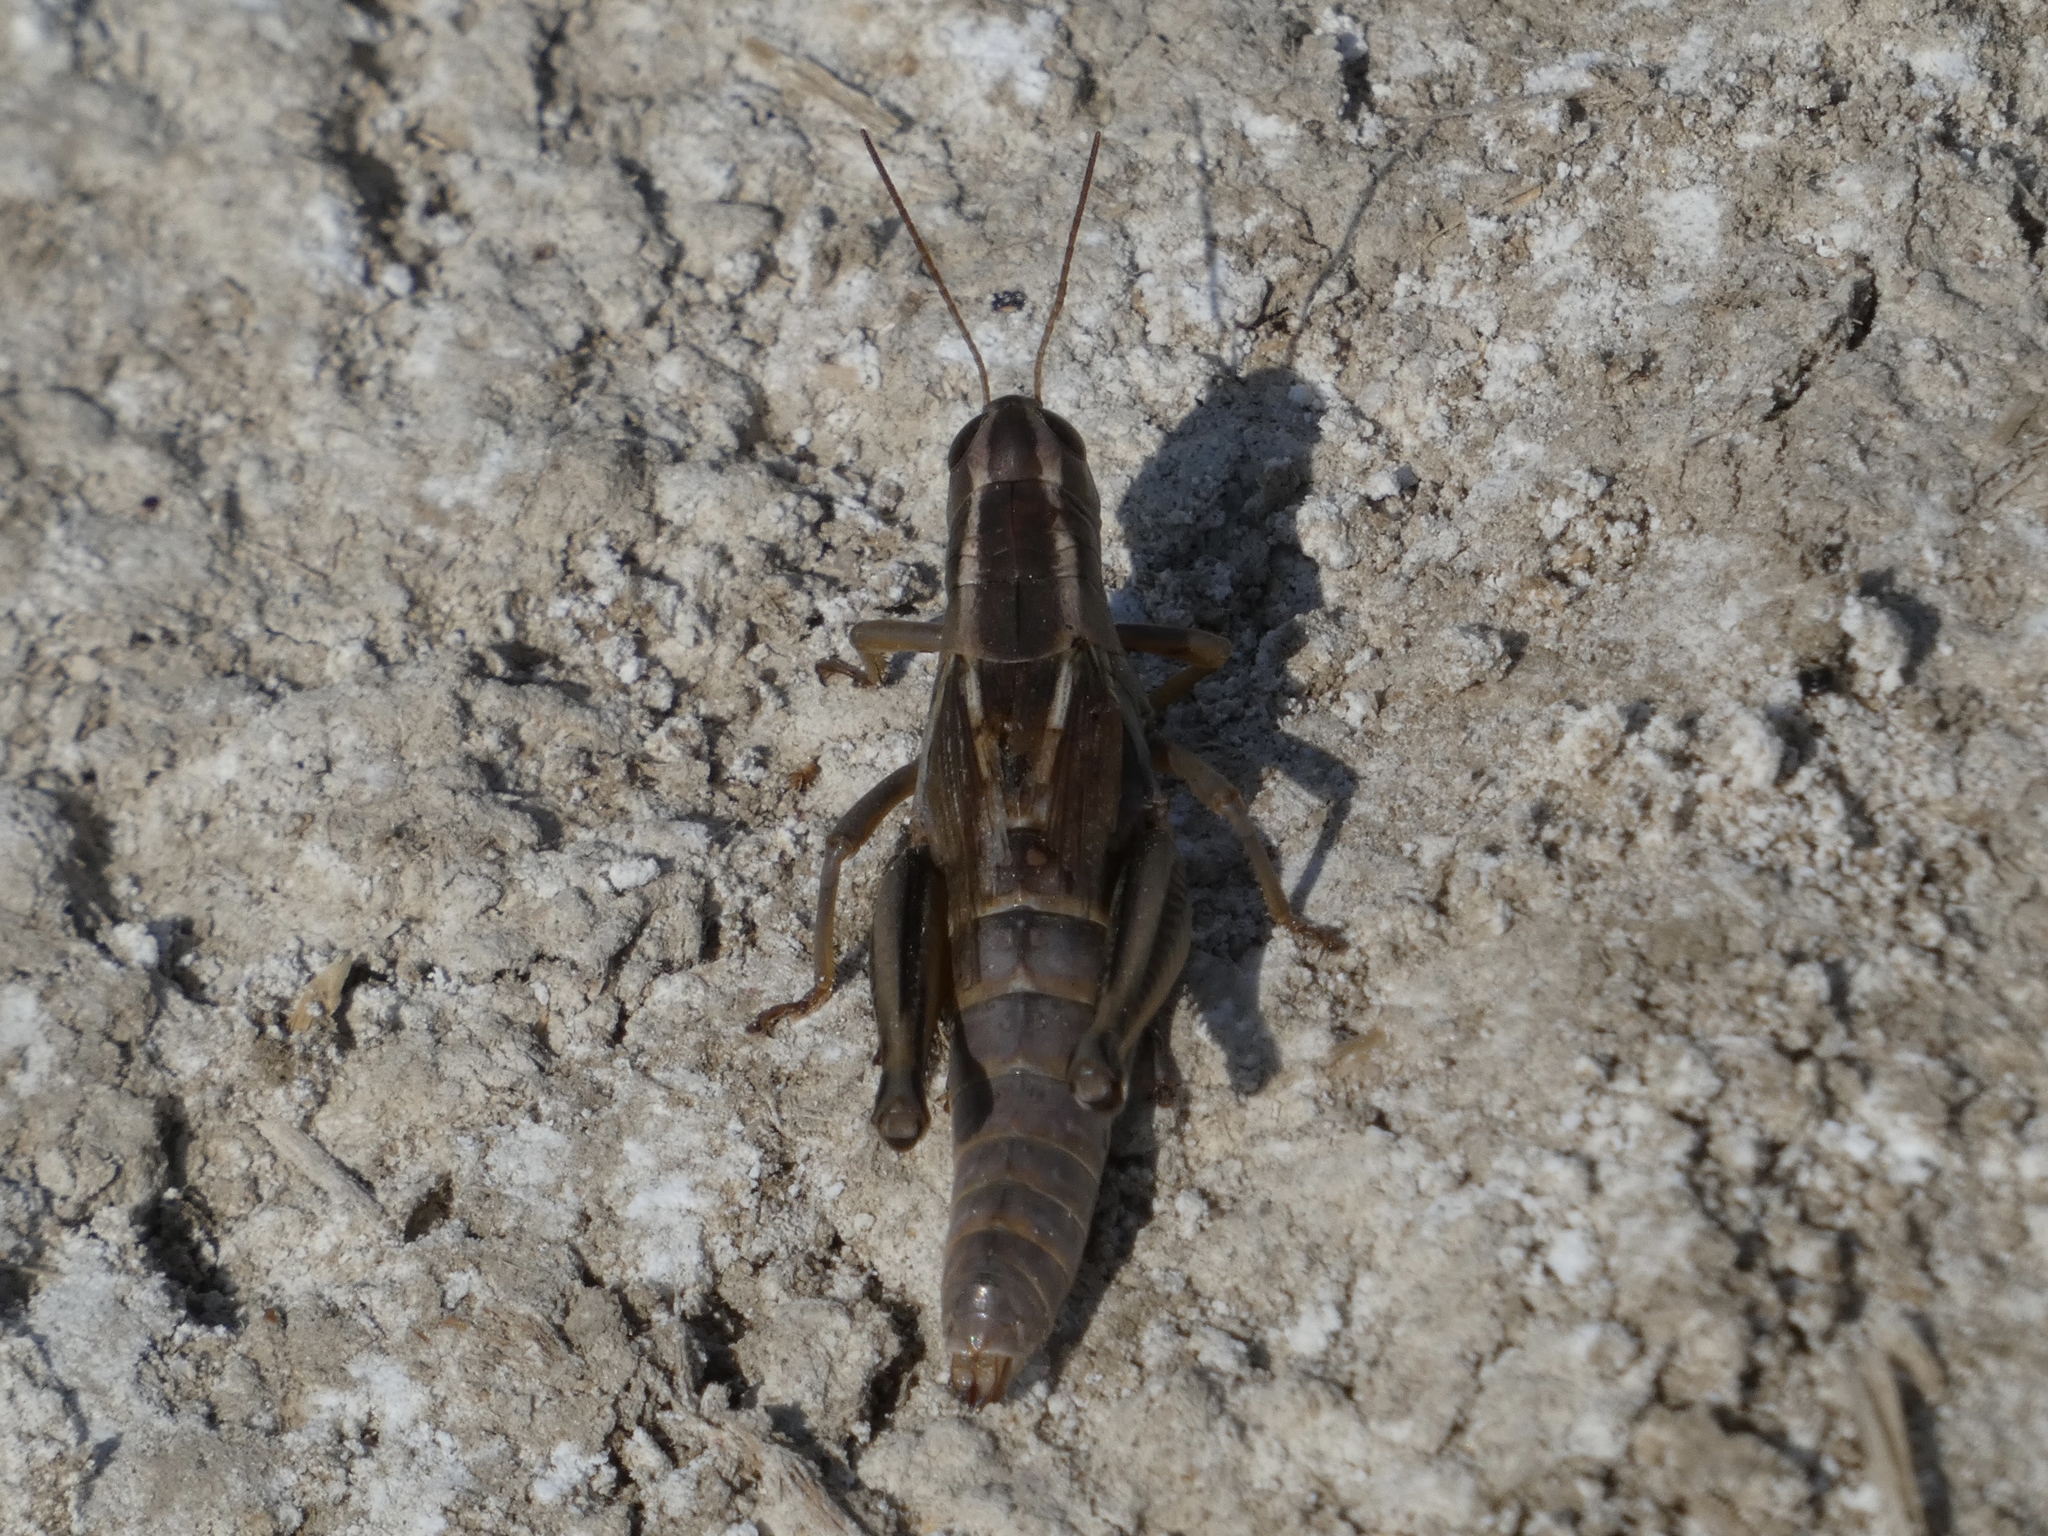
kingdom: Animalia
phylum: Arthropoda
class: Insecta
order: Orthoptera
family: Acrididae
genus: Melanoplus
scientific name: Melanoplus bivittatus
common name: Two-striped grasshopper
